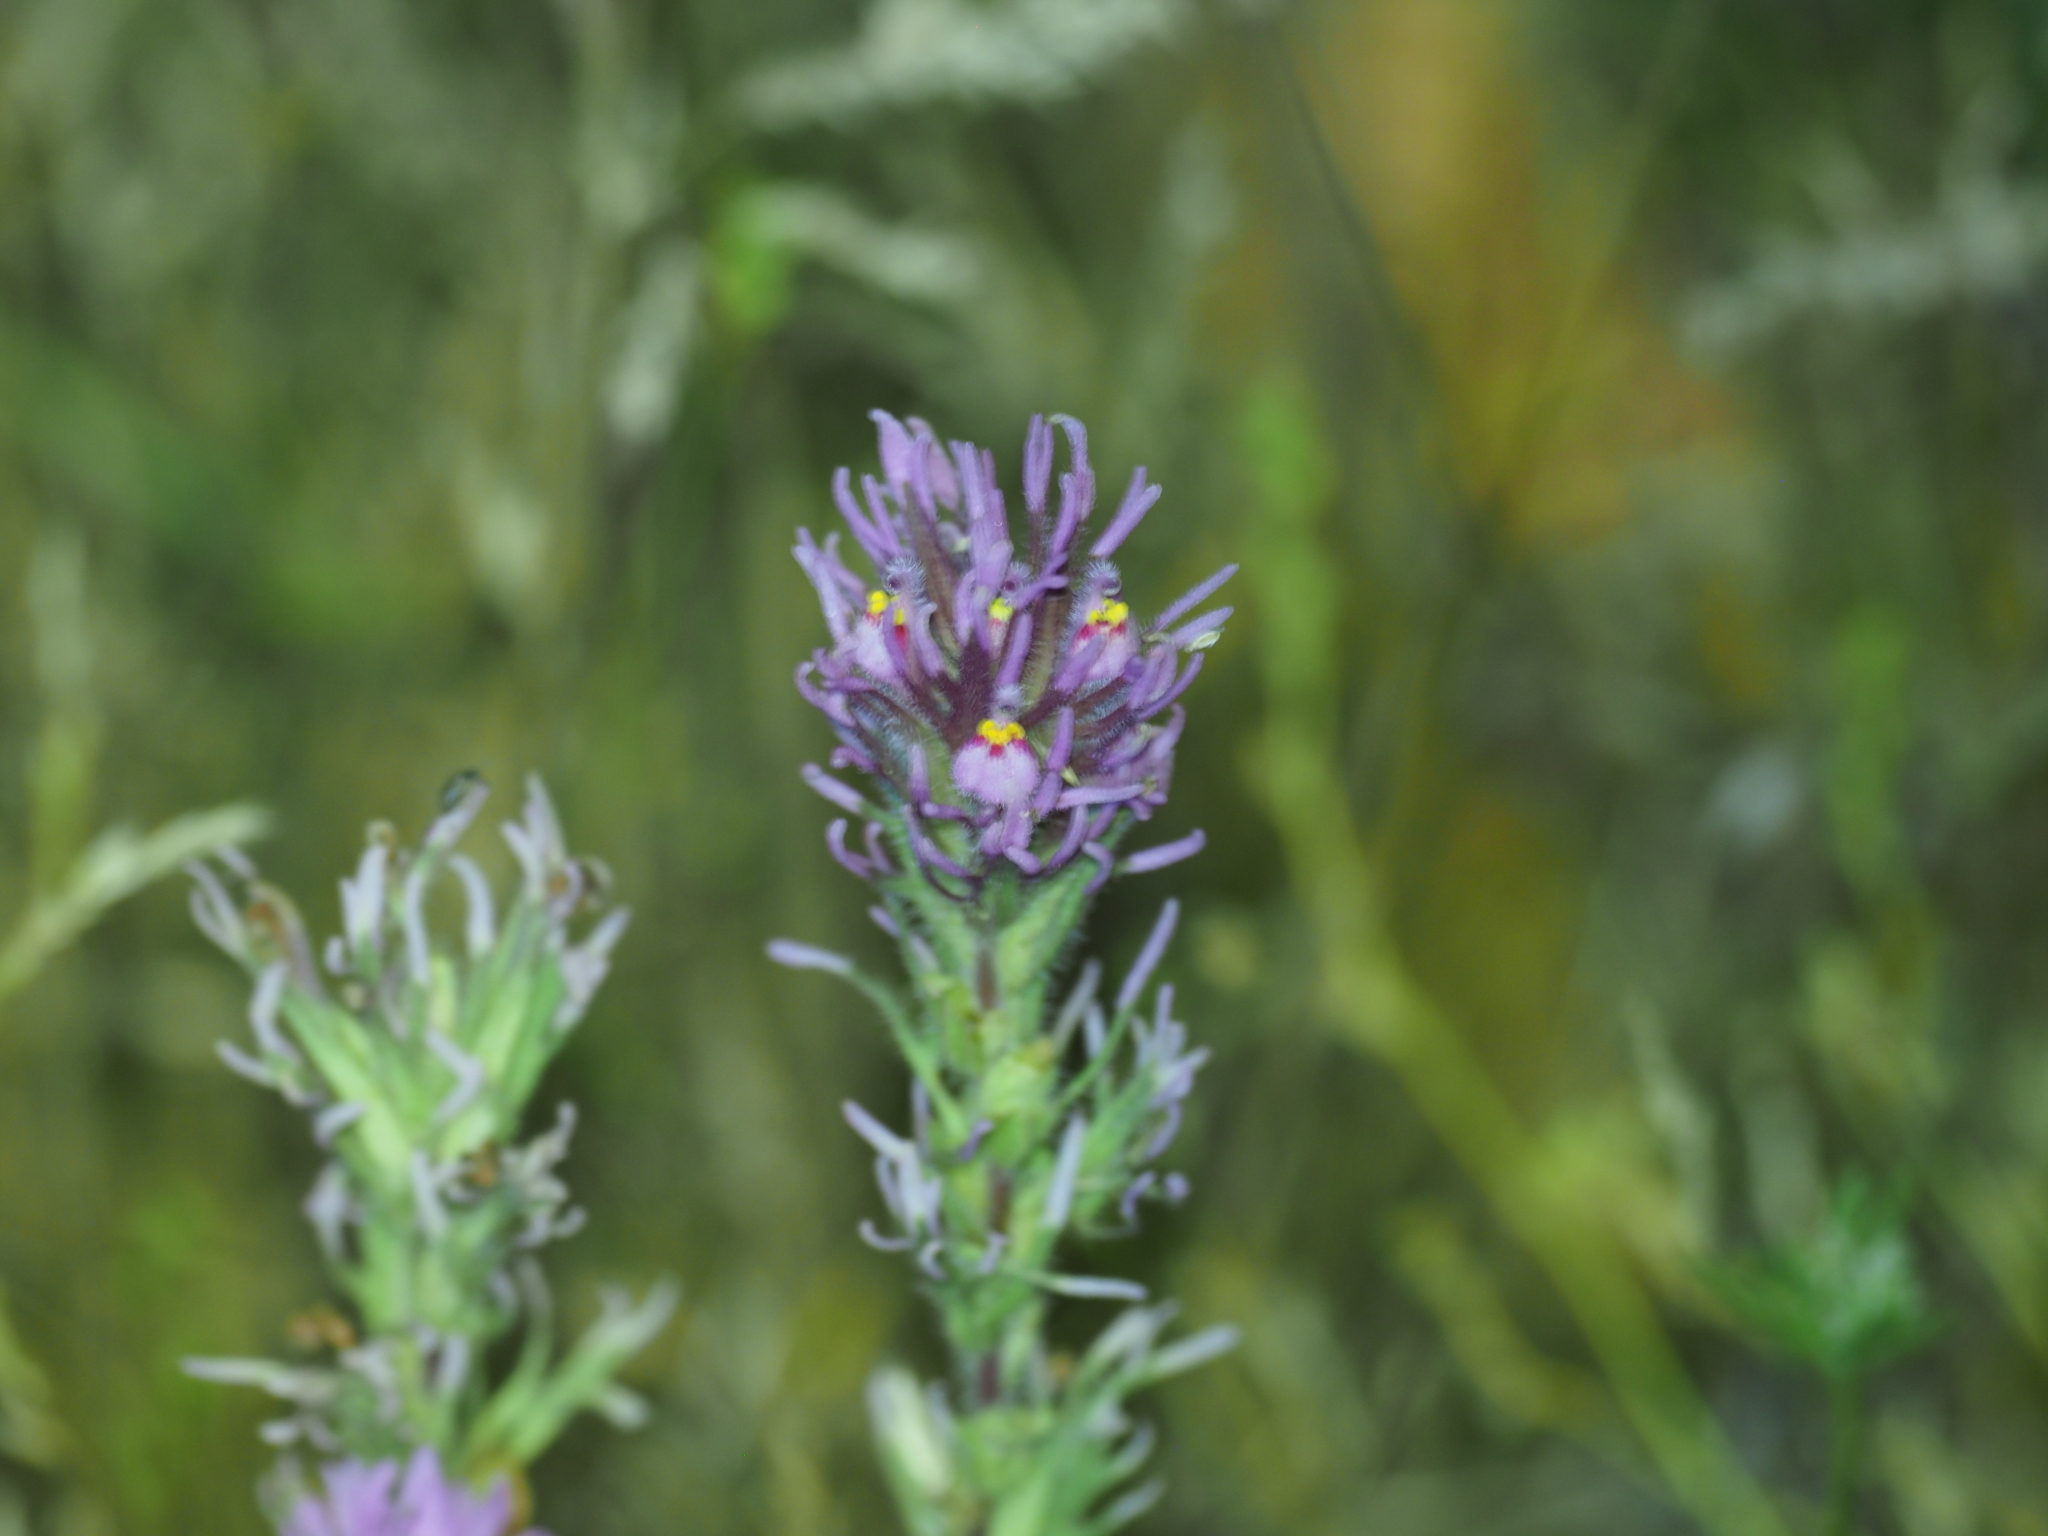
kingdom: Plantae
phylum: Tracheophyta
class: Magnoliopsida
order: Lamiales
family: Orobanchaceae
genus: Castilleja
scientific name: Castilleja exserta
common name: Purple owl-clover
